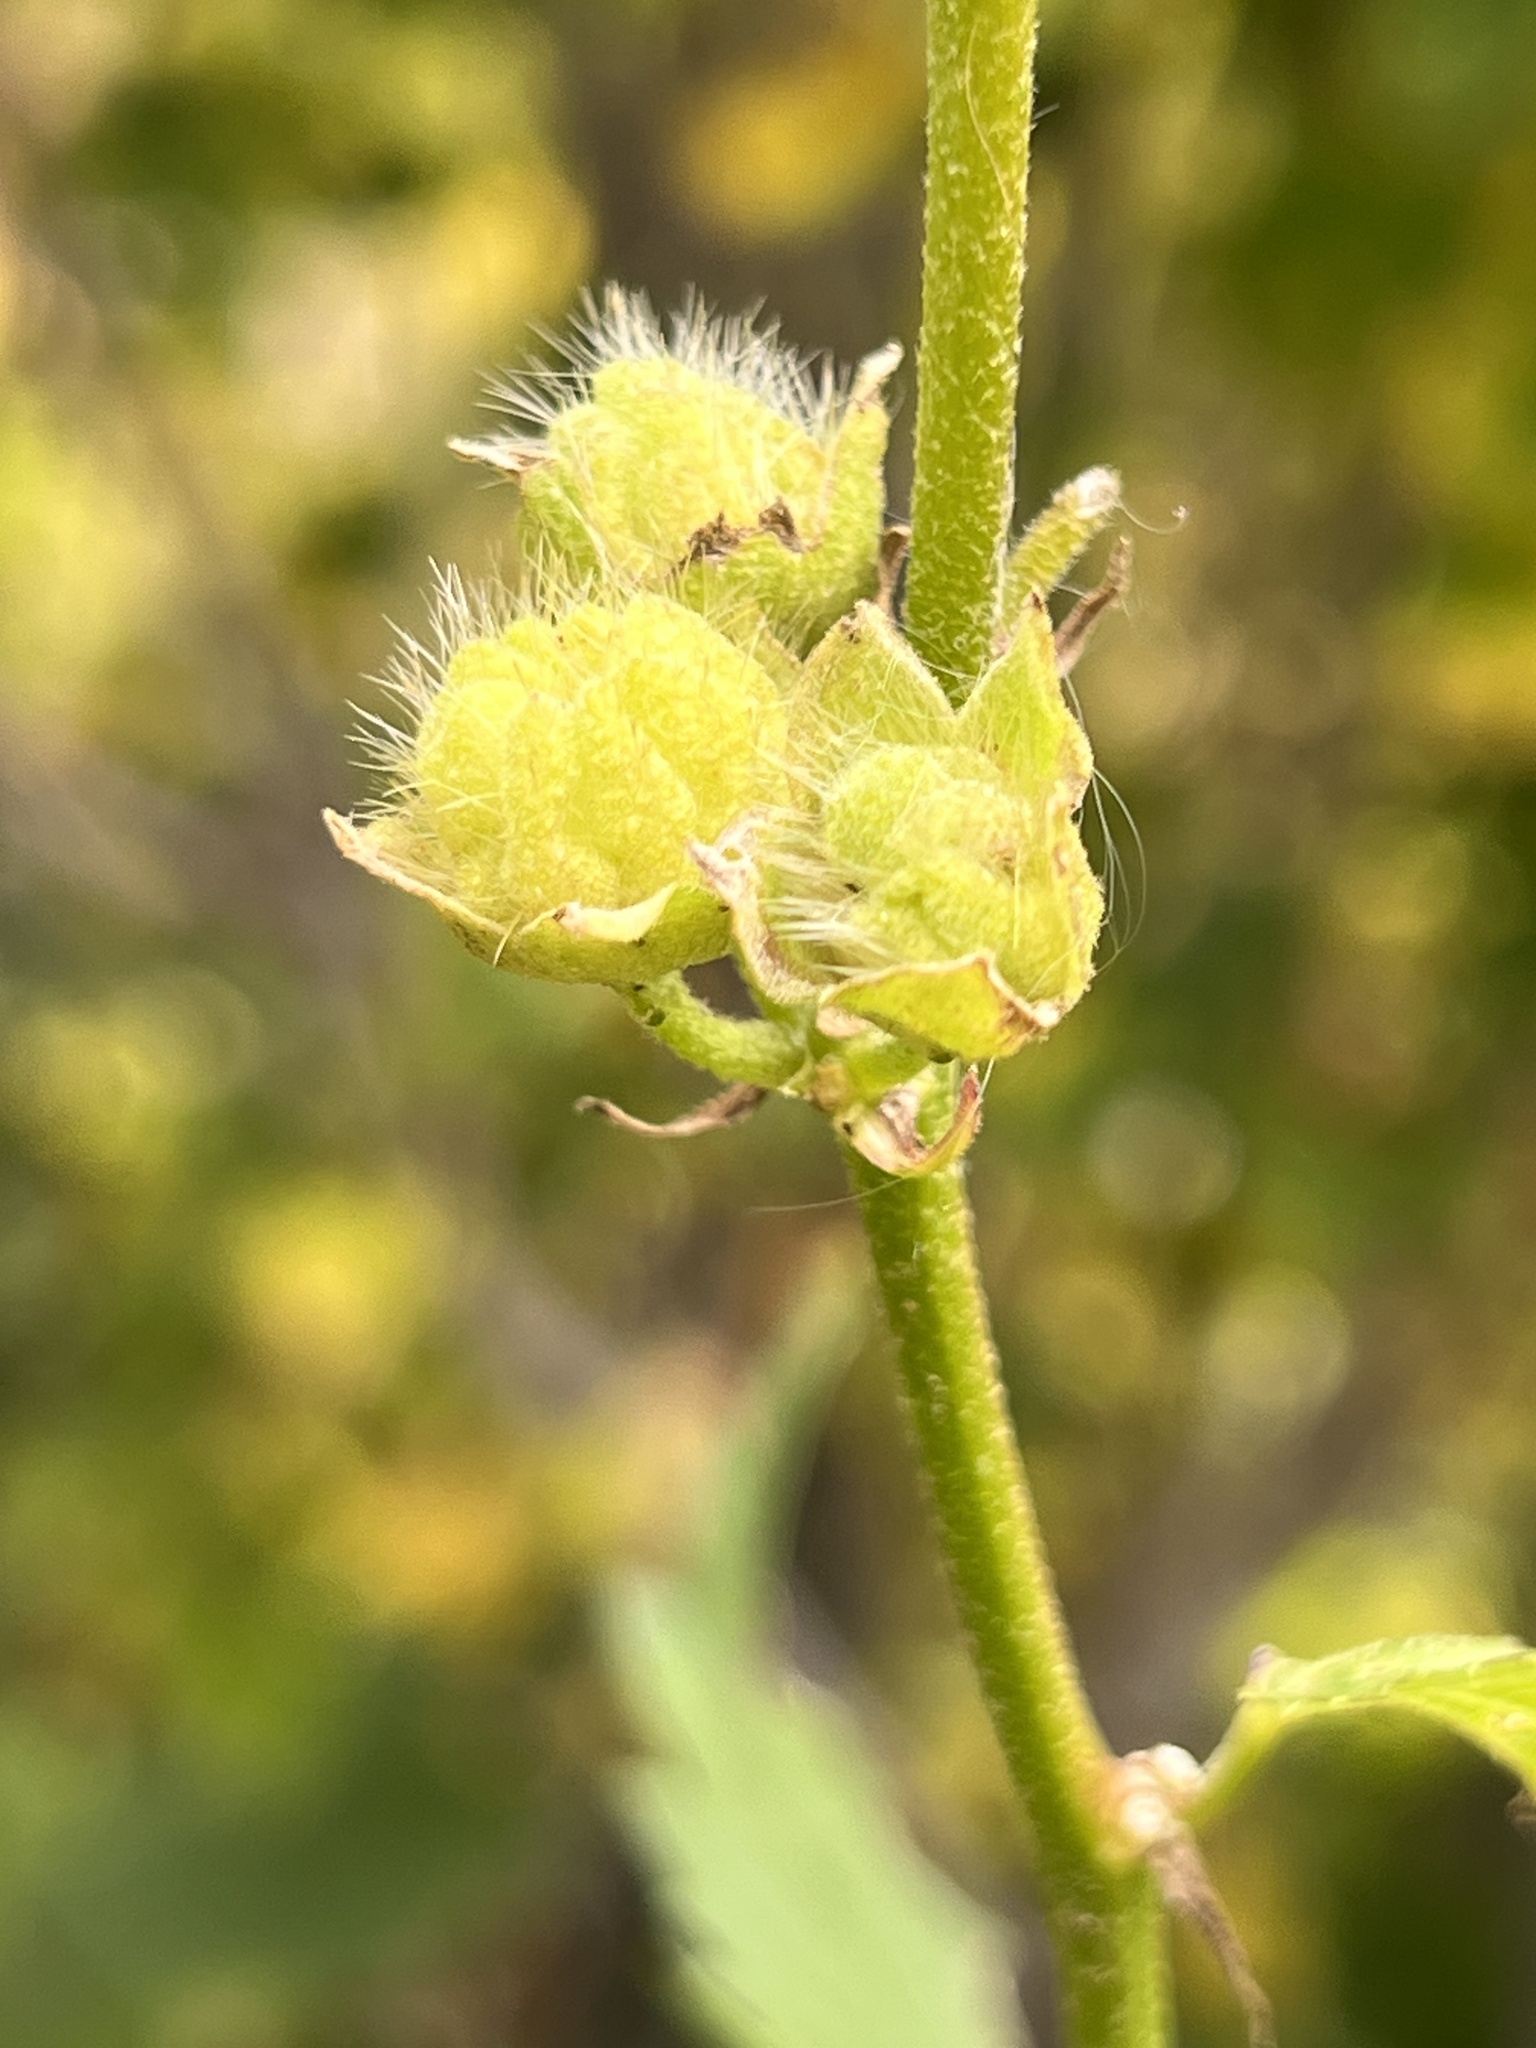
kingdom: Plantae
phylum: Tracheophyta
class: Magnoliopsida
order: Malvales
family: Malvaceae
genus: Iliamna
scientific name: Iliamna rivularis
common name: Wild hollyhock
